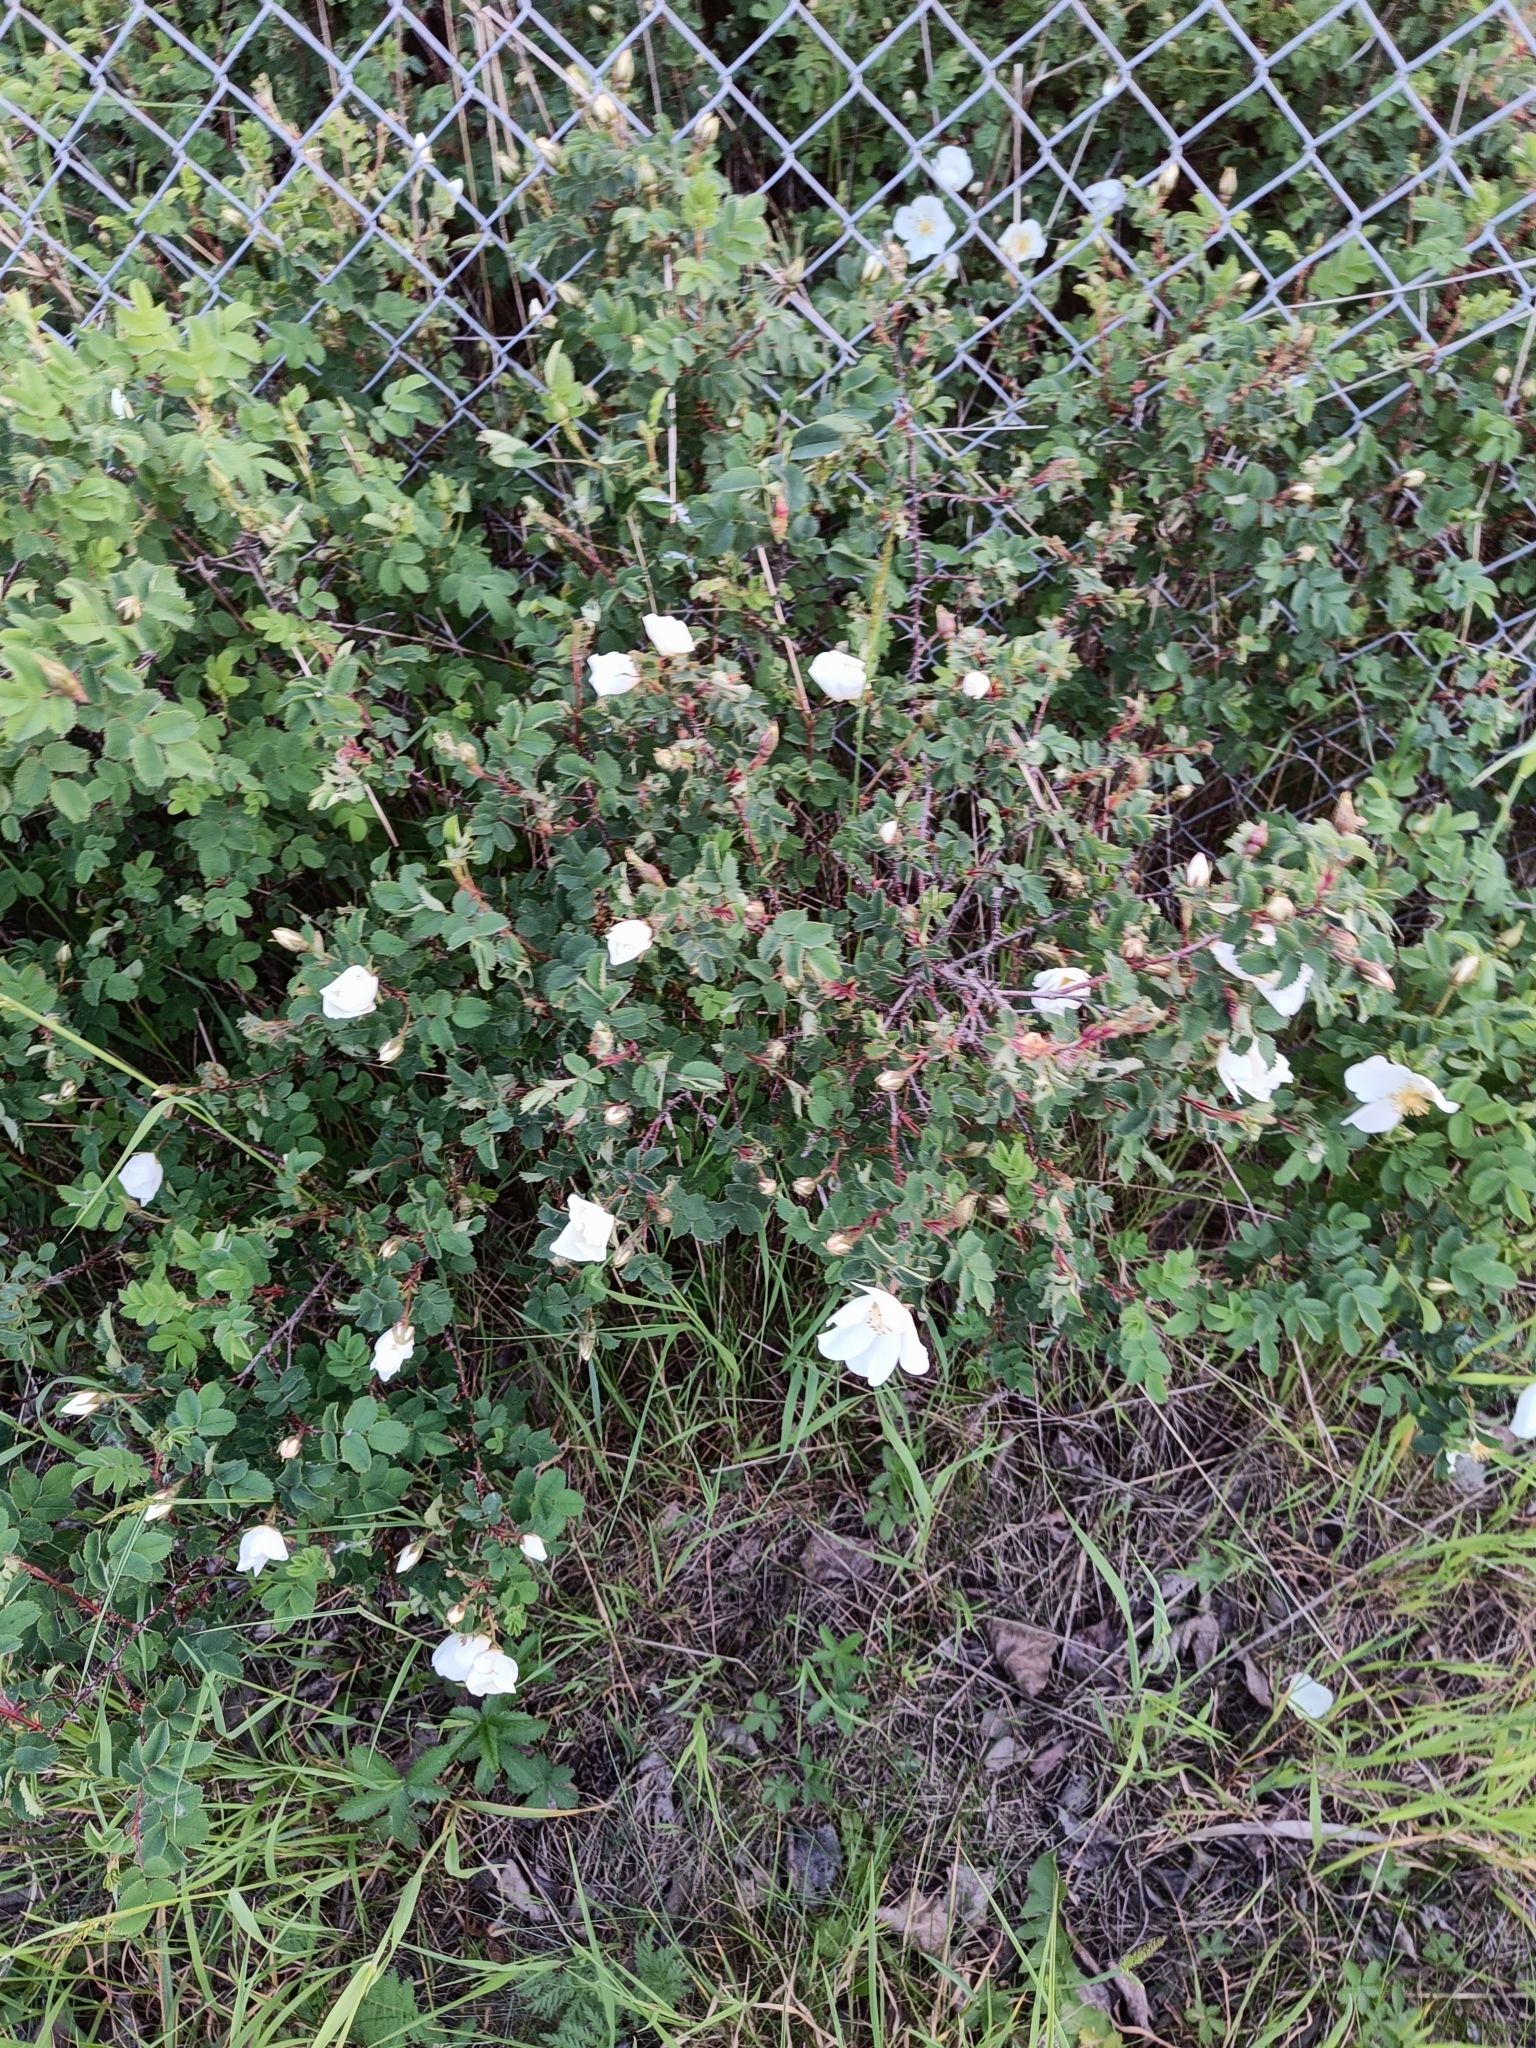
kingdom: Plantae
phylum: Tracheophyta
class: Magnoliopsida
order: Rosales
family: Rosaceae
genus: Rosa
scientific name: Rosa spinosissima
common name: Burnet rose
